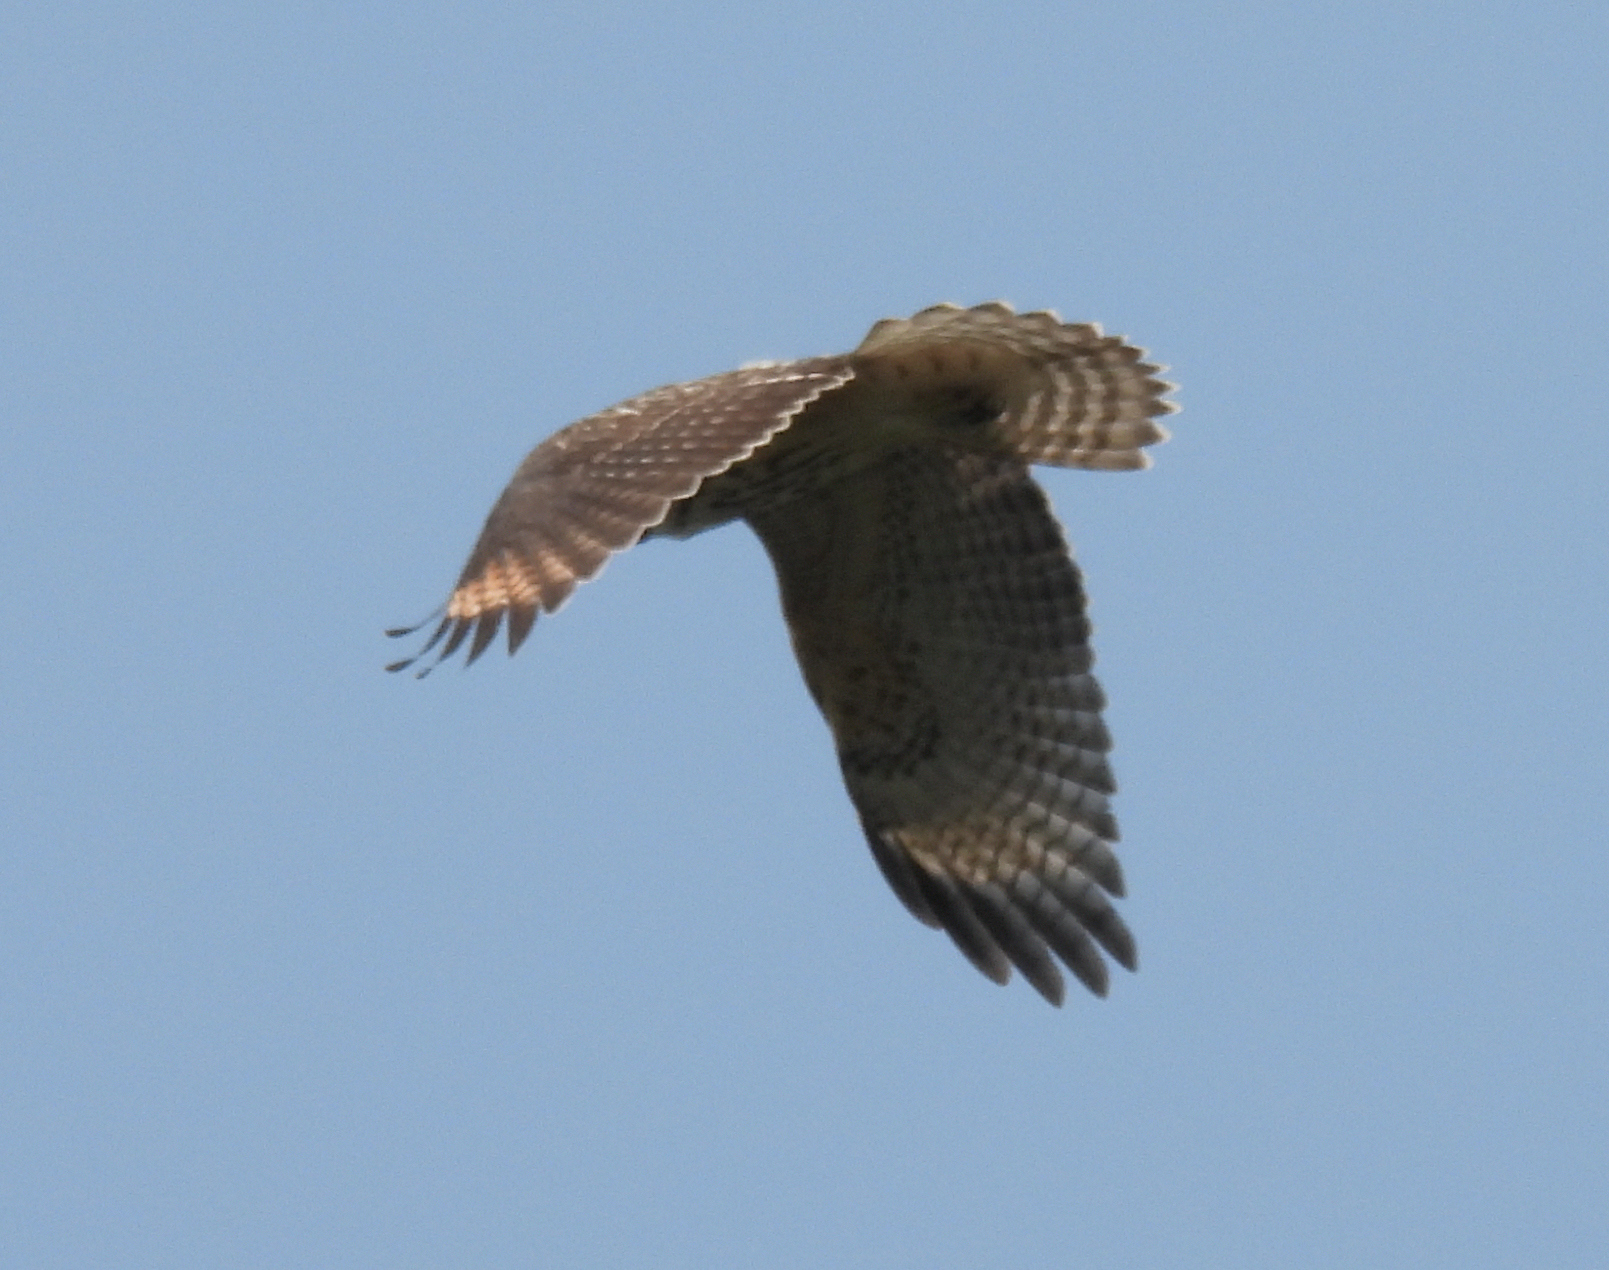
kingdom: Animalia
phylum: Chordata
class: Aves
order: Accipitriformes
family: Accipitridae
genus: Buteo
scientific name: Buteo lineatus
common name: Red-shouldered hawk
